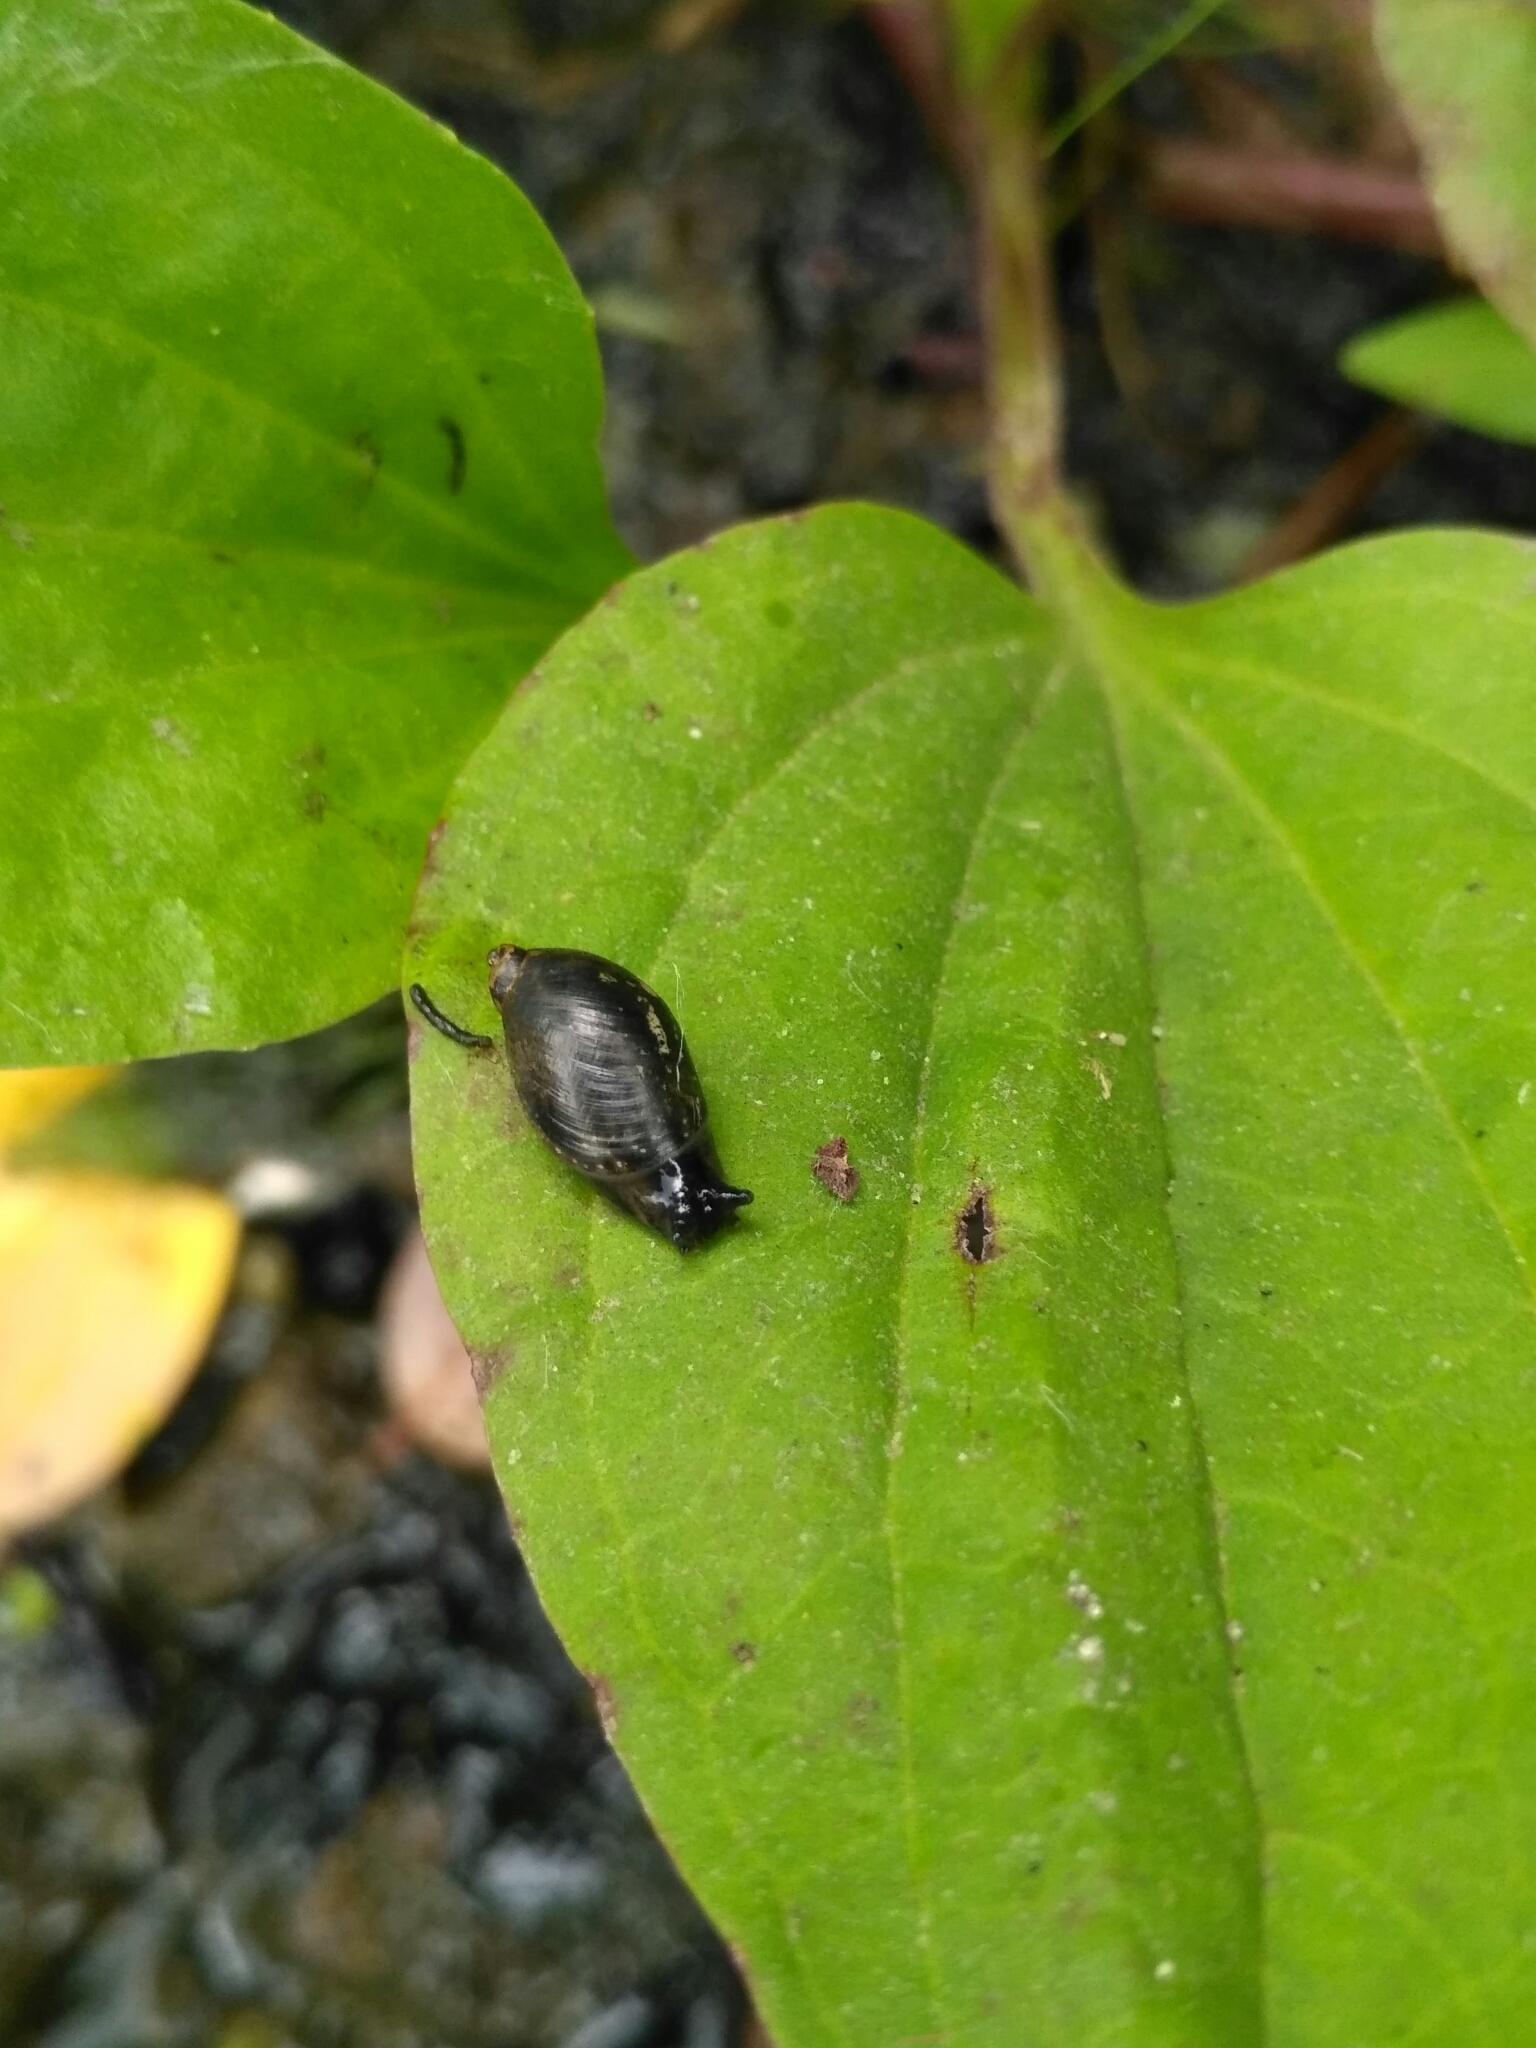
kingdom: Animalia
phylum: Mollusca
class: Gastropoda
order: Stylommatophora
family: Succineidae
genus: Succinea
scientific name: Succinea putris
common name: European ambersnail
